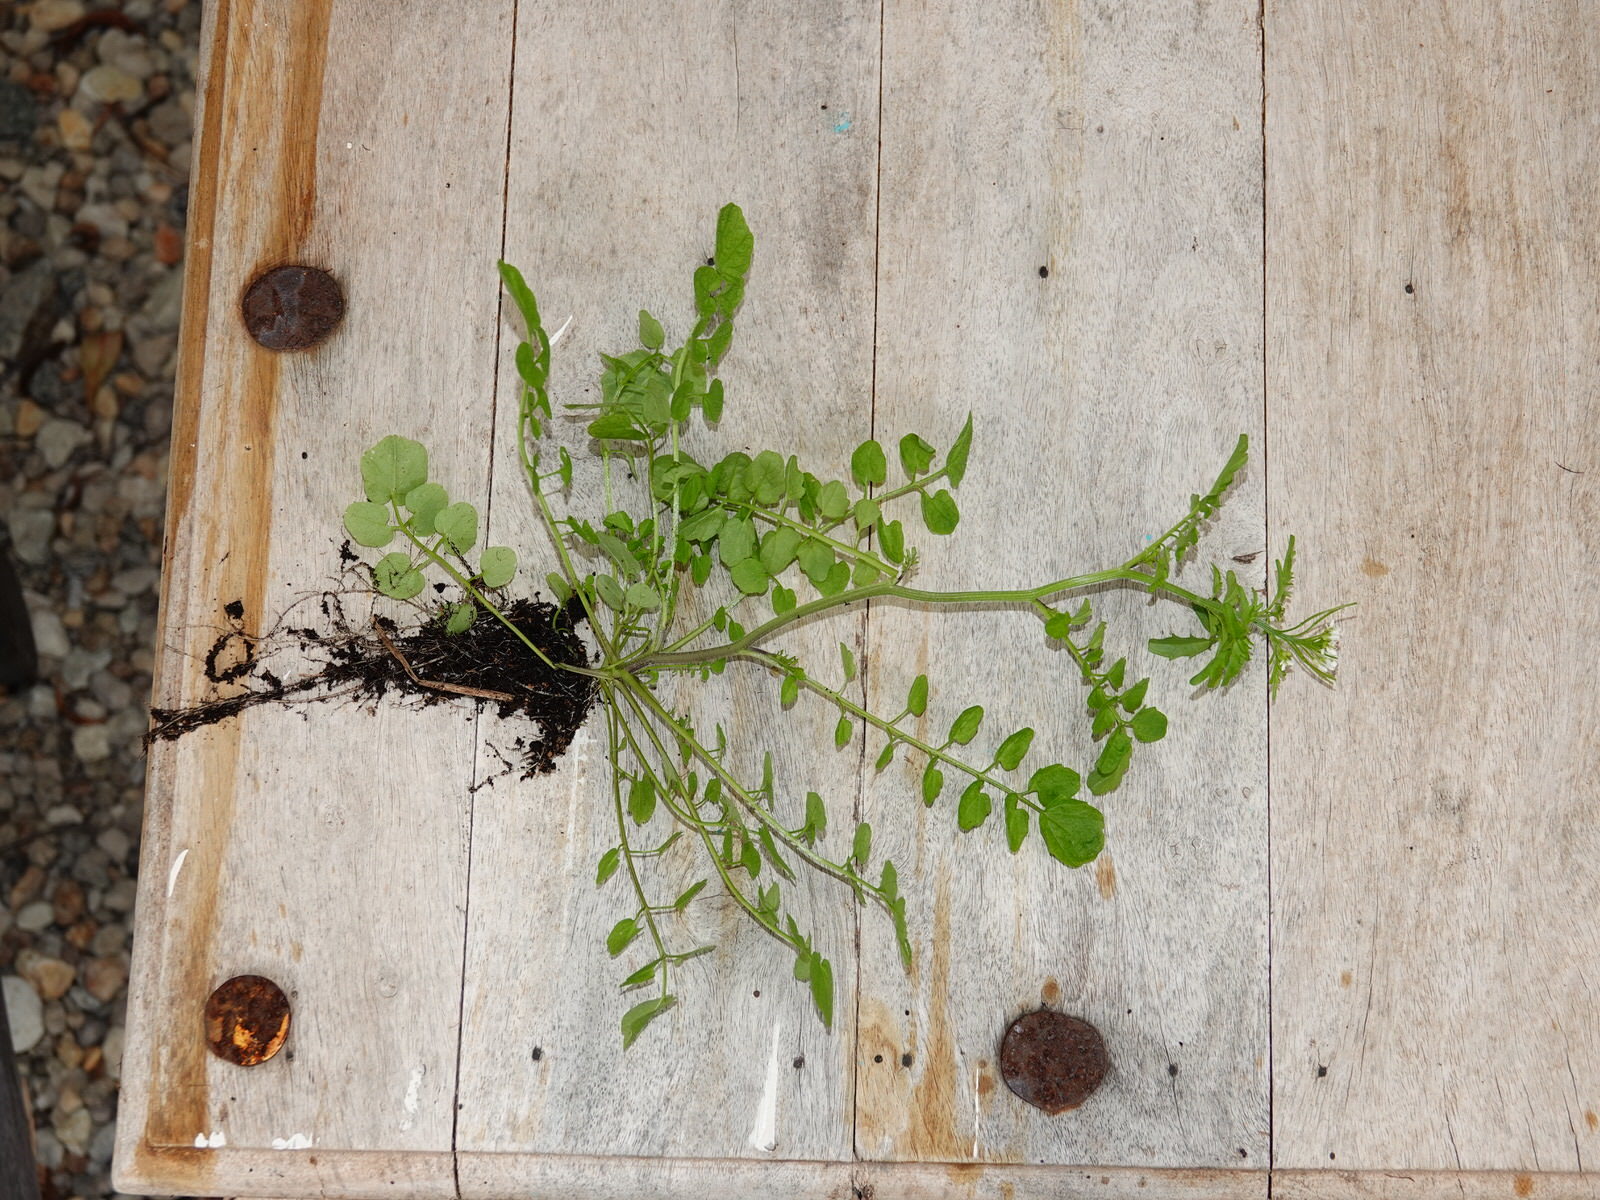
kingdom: Plantae
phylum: Tracheophyta
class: Magnoliopsida
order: Brassicales
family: Brassicaceae
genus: Cardamine
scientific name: Cardamine flexuosa
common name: Woodland bittercress
